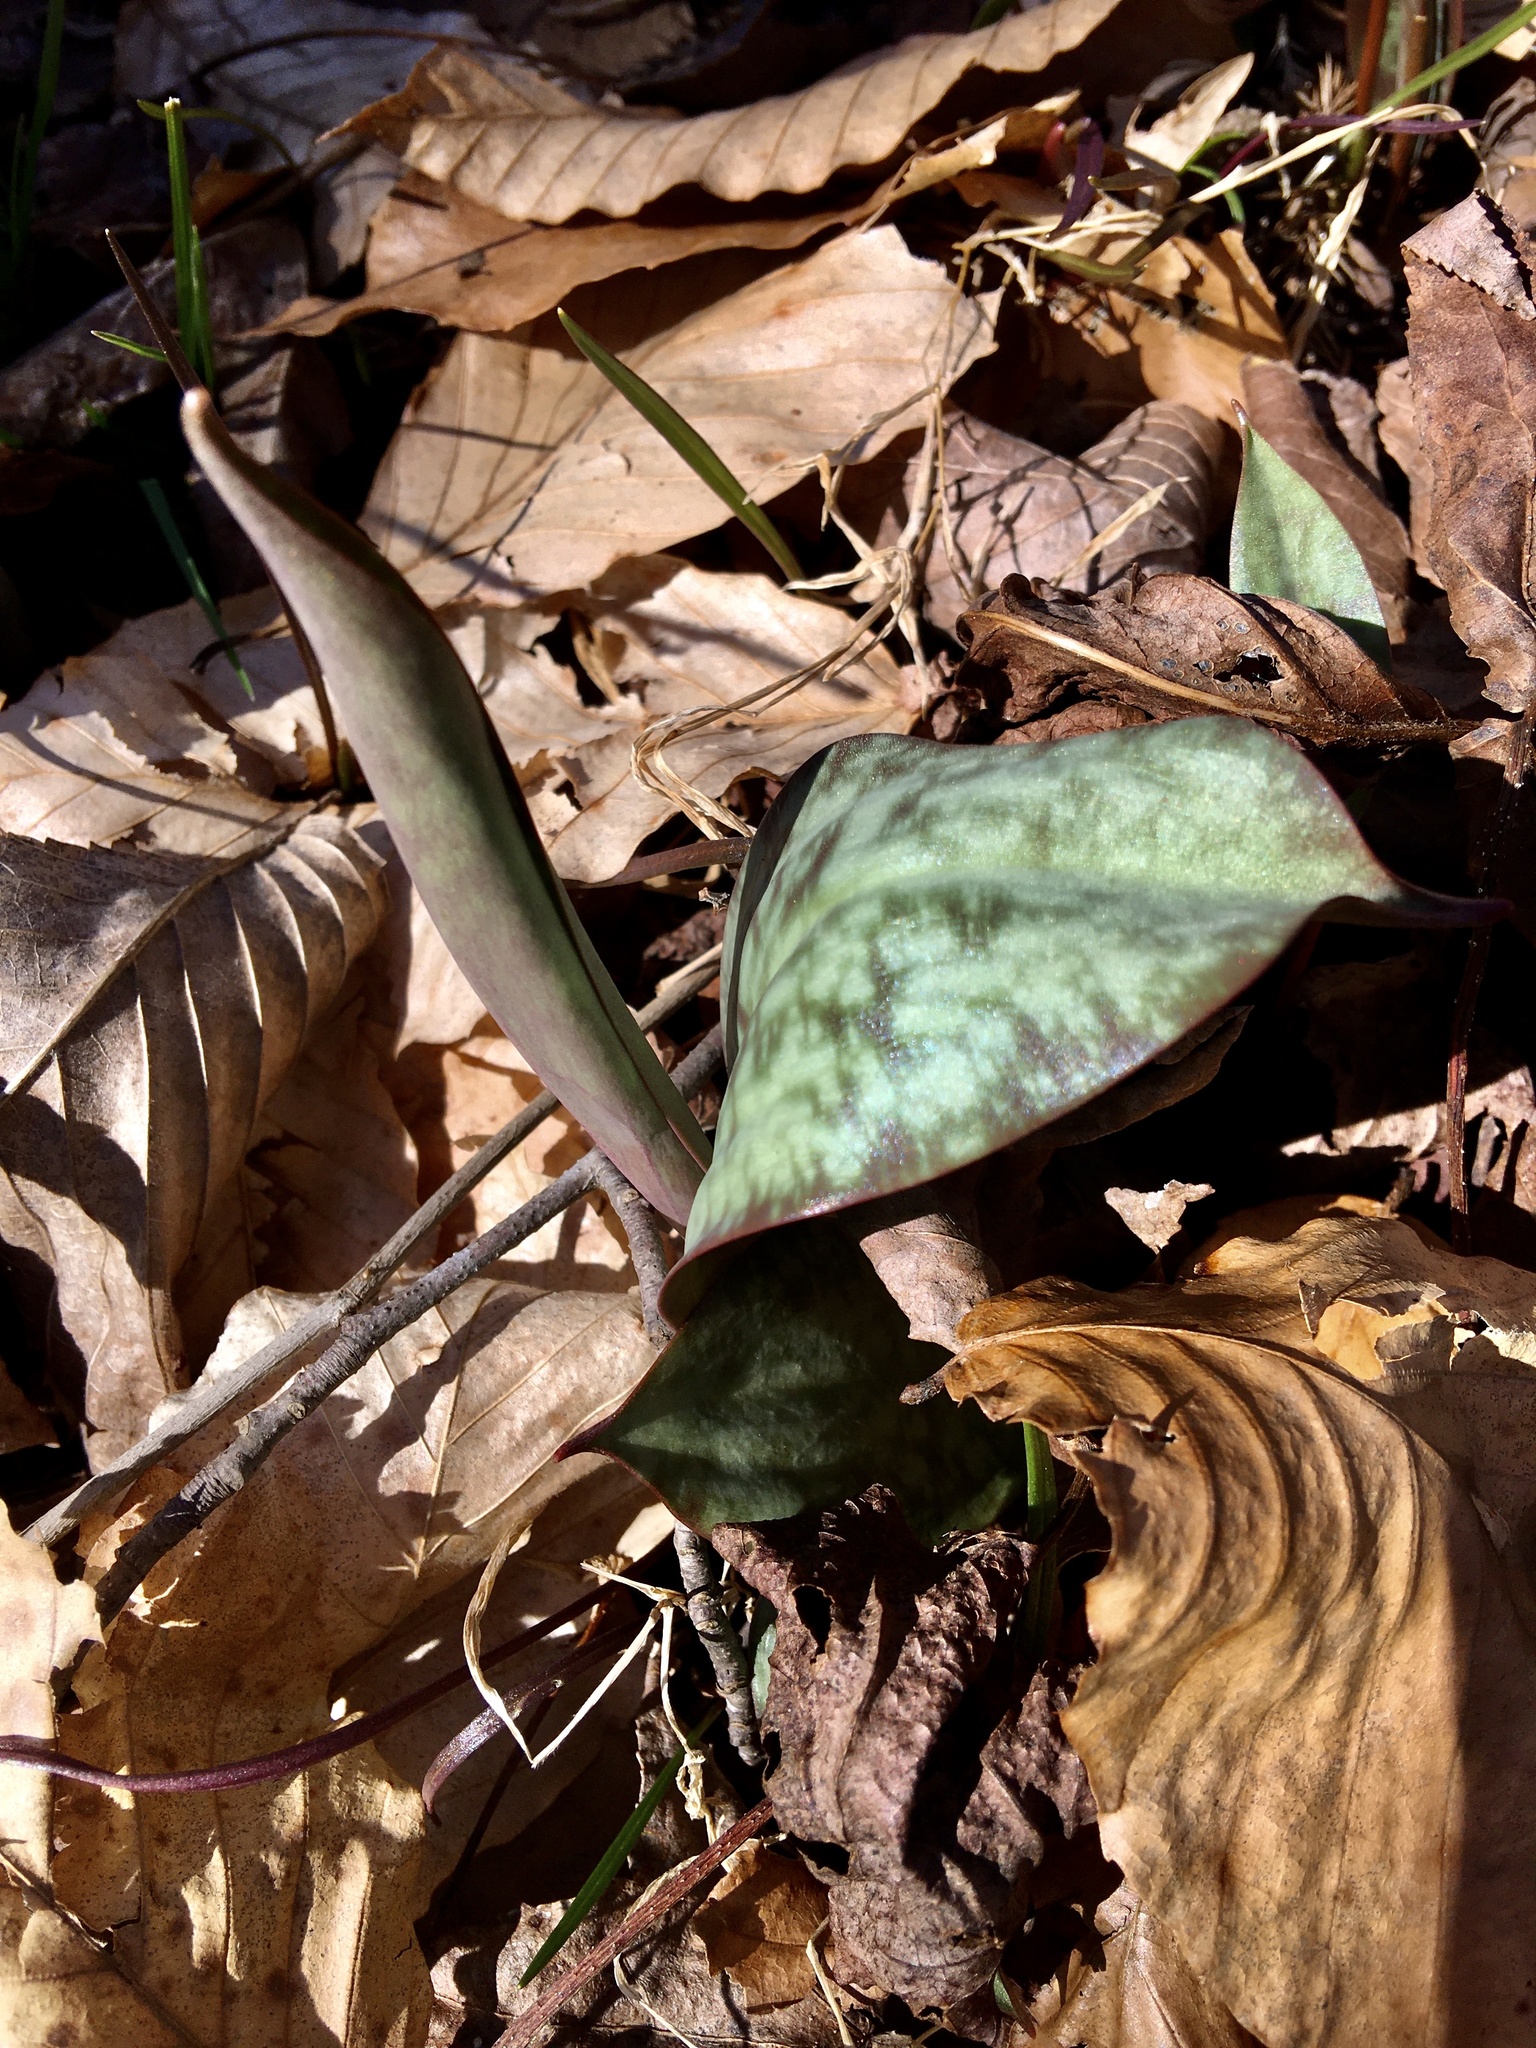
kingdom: Plantae
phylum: Tracheophyta
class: Liliopsida
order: Liliales
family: Liliaceae
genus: Erythronium
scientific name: Erythronium umbilicatum
